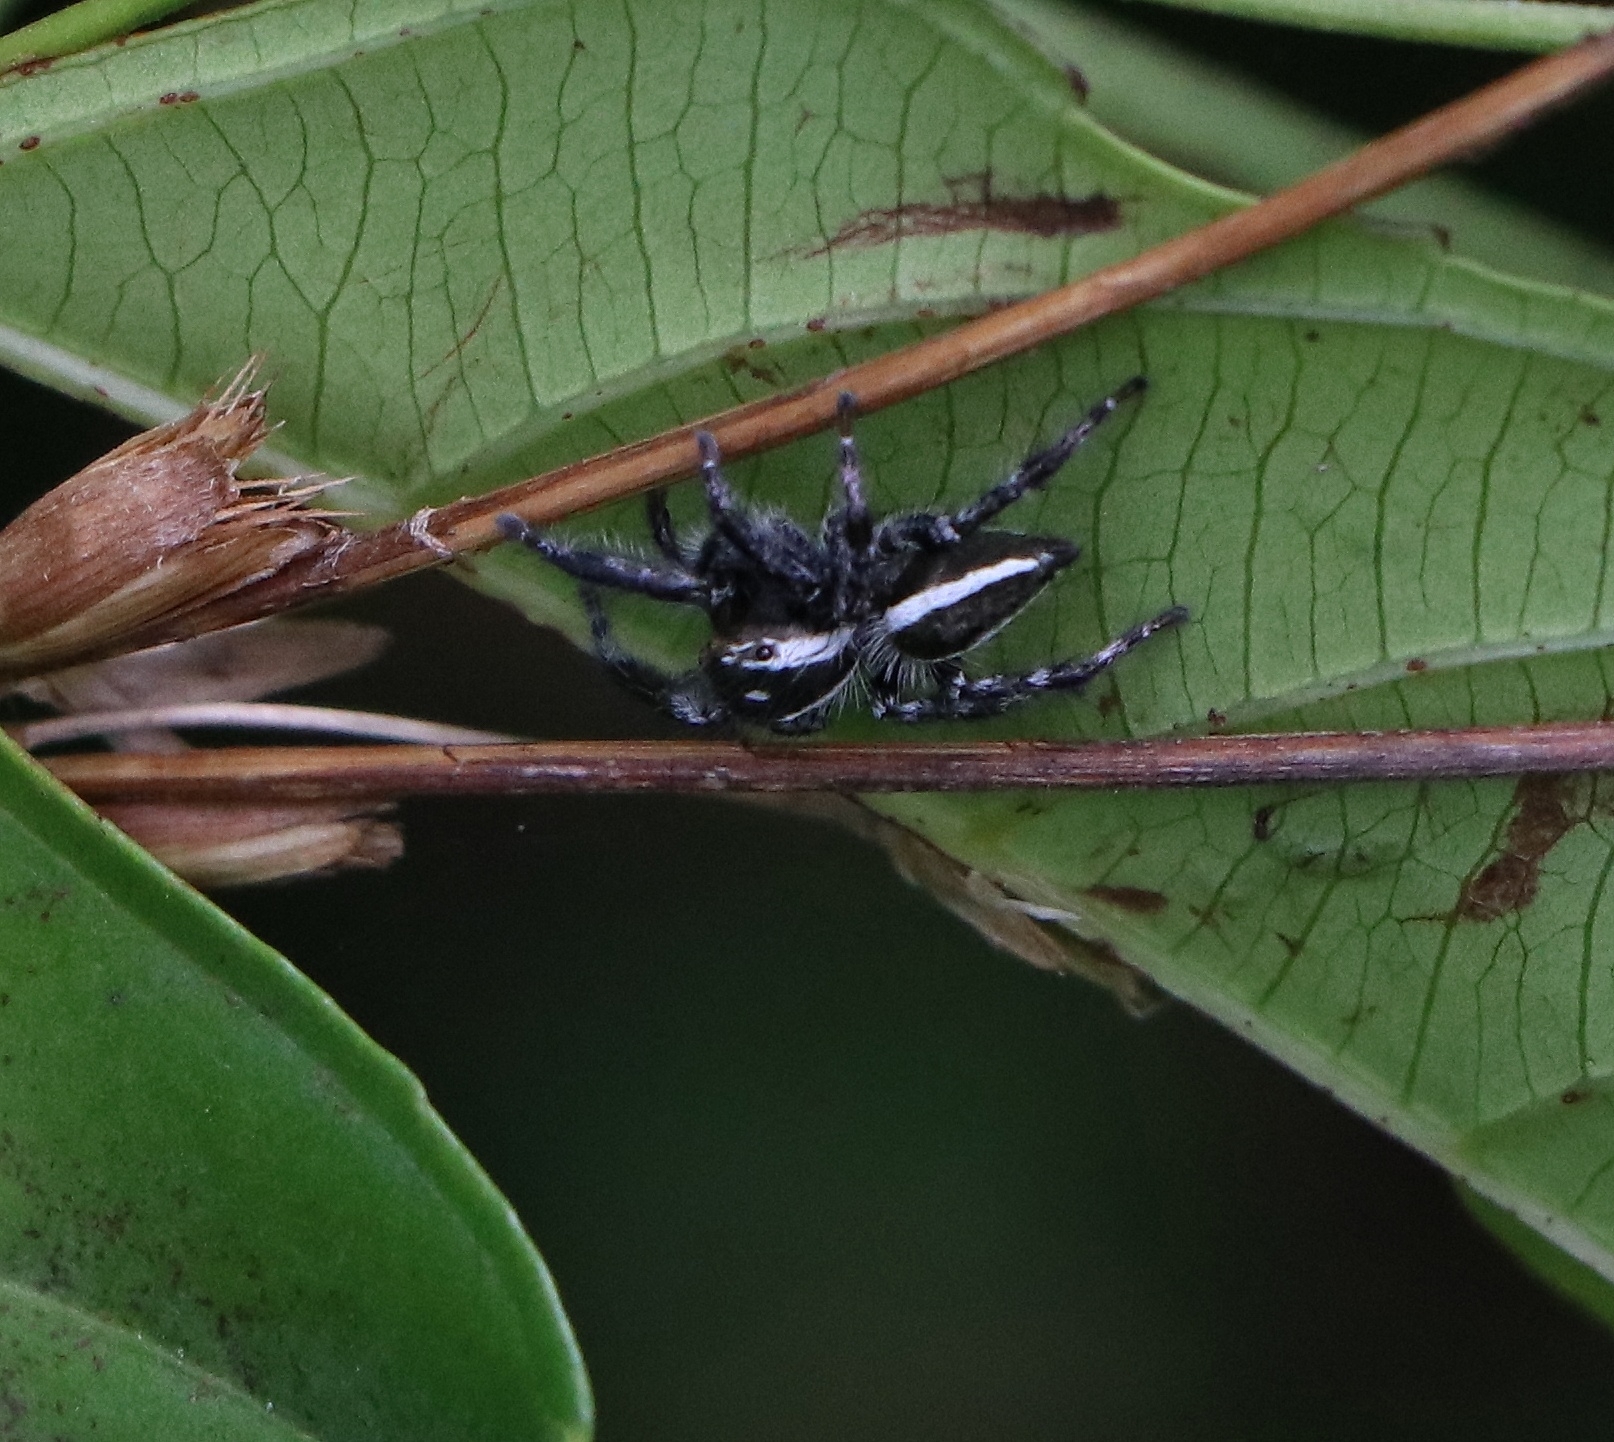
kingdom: Animalia
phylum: Arthropoda
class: Arachnida
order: Araneae
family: Salticidae
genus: Carrhotus
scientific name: Carrhotus viduus
